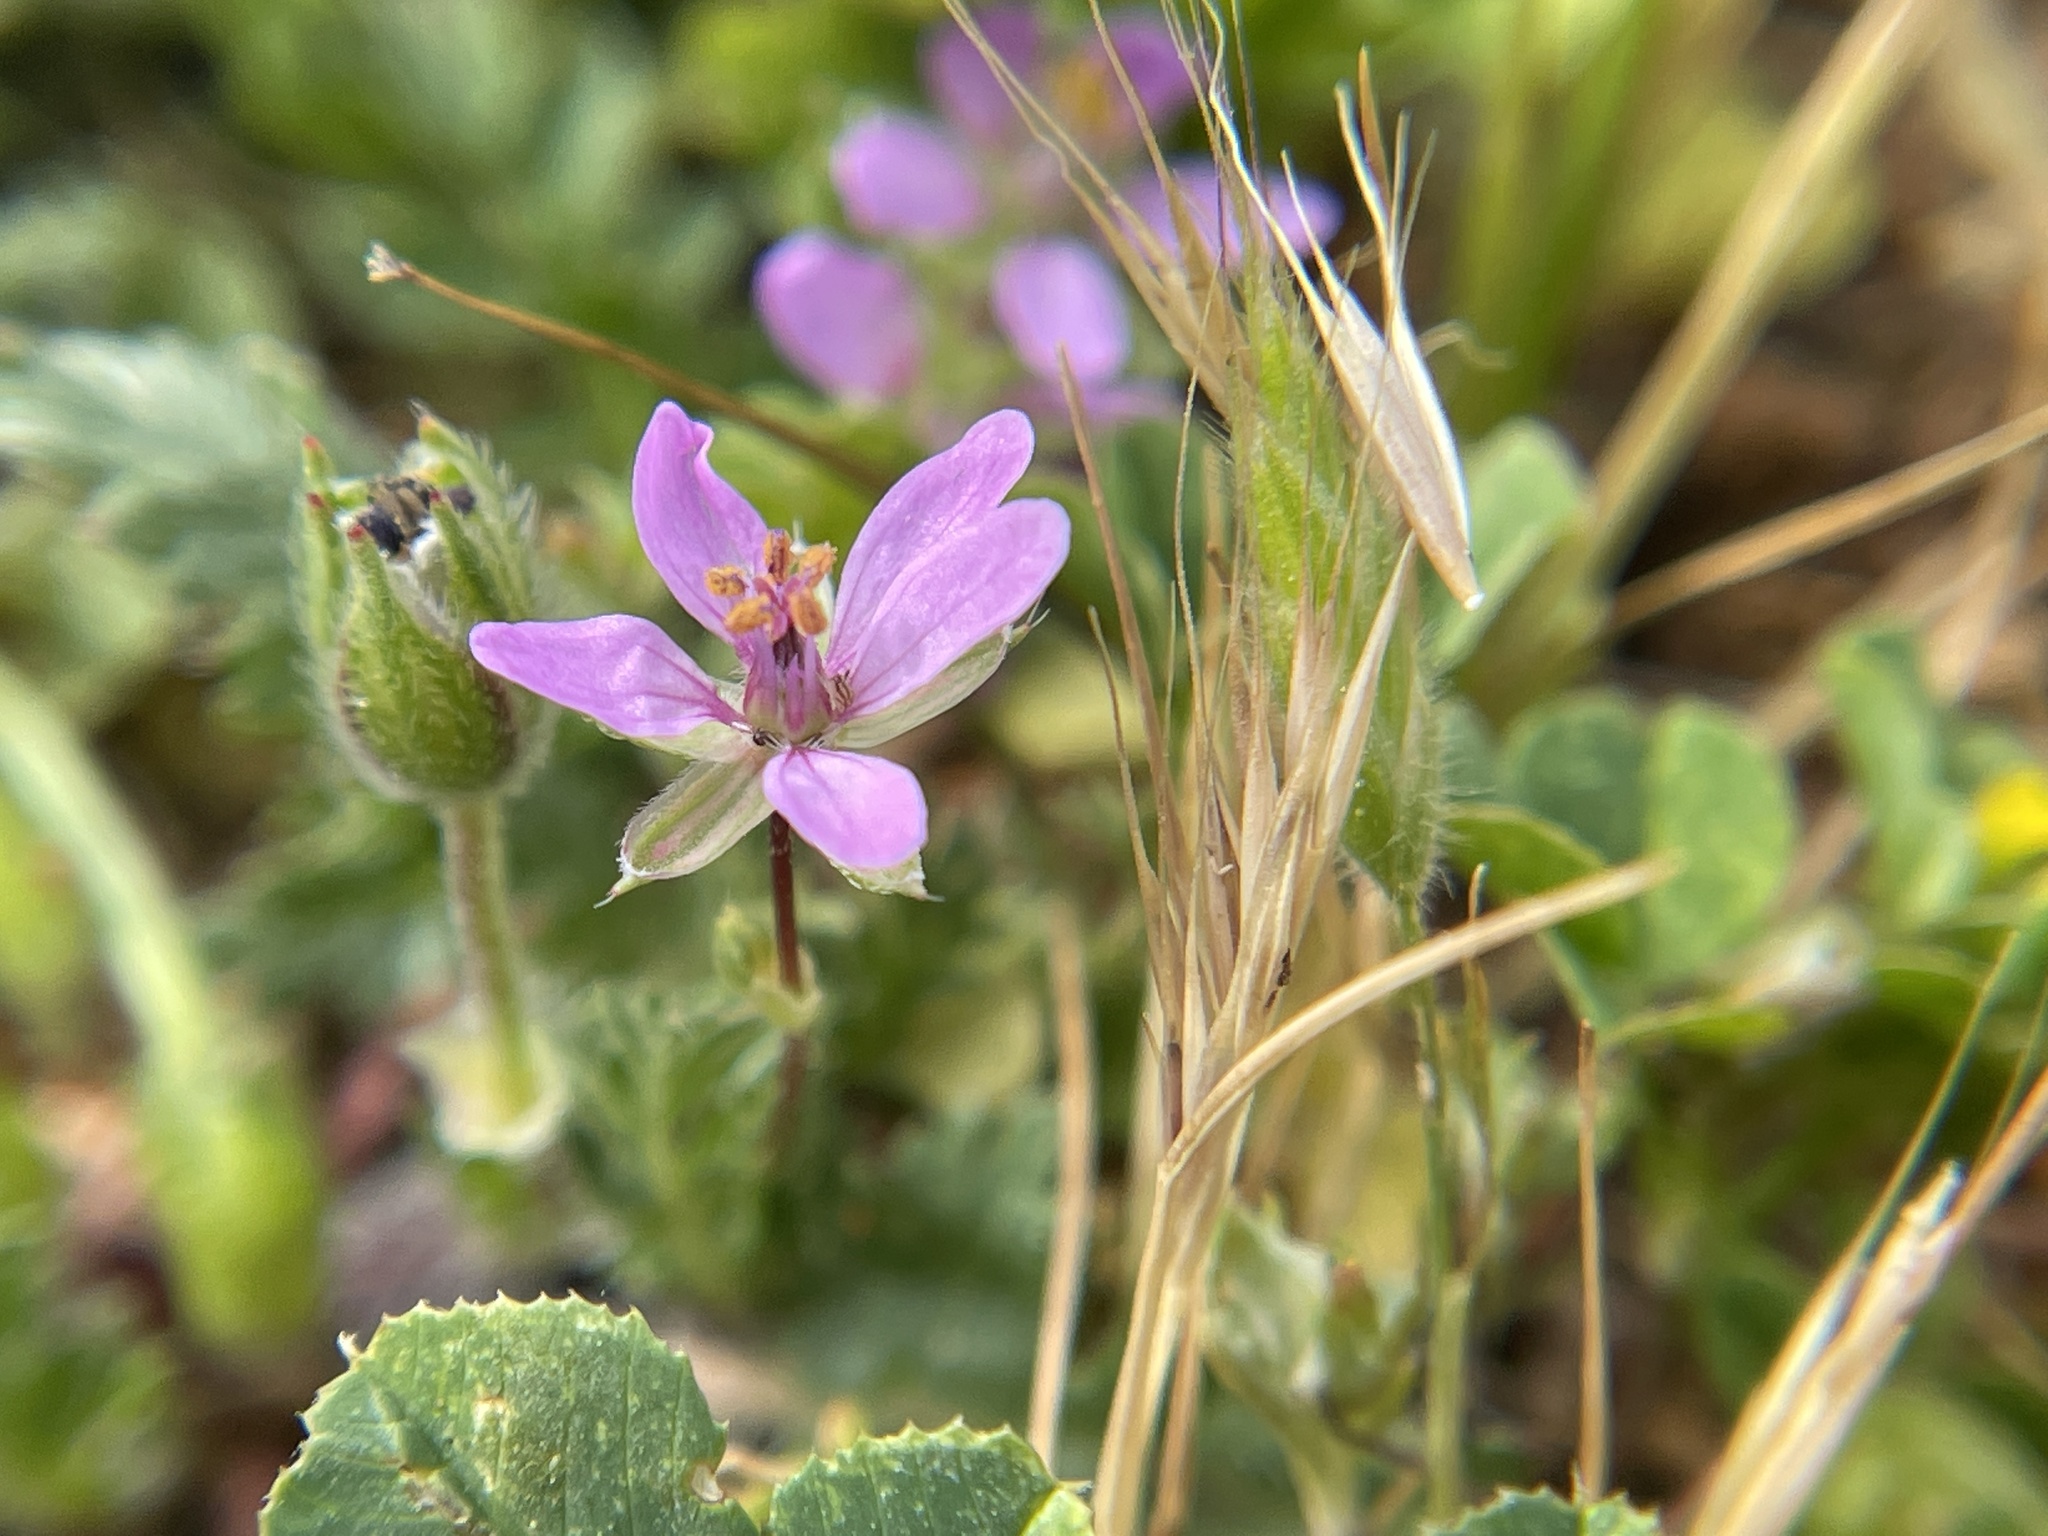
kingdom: Plantae
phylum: Tracheophyta
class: Magnoliopsida
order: Geraniales
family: Geraniaceae
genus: Erodium
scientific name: Erodium cicutarium
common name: Common stork's-bill
